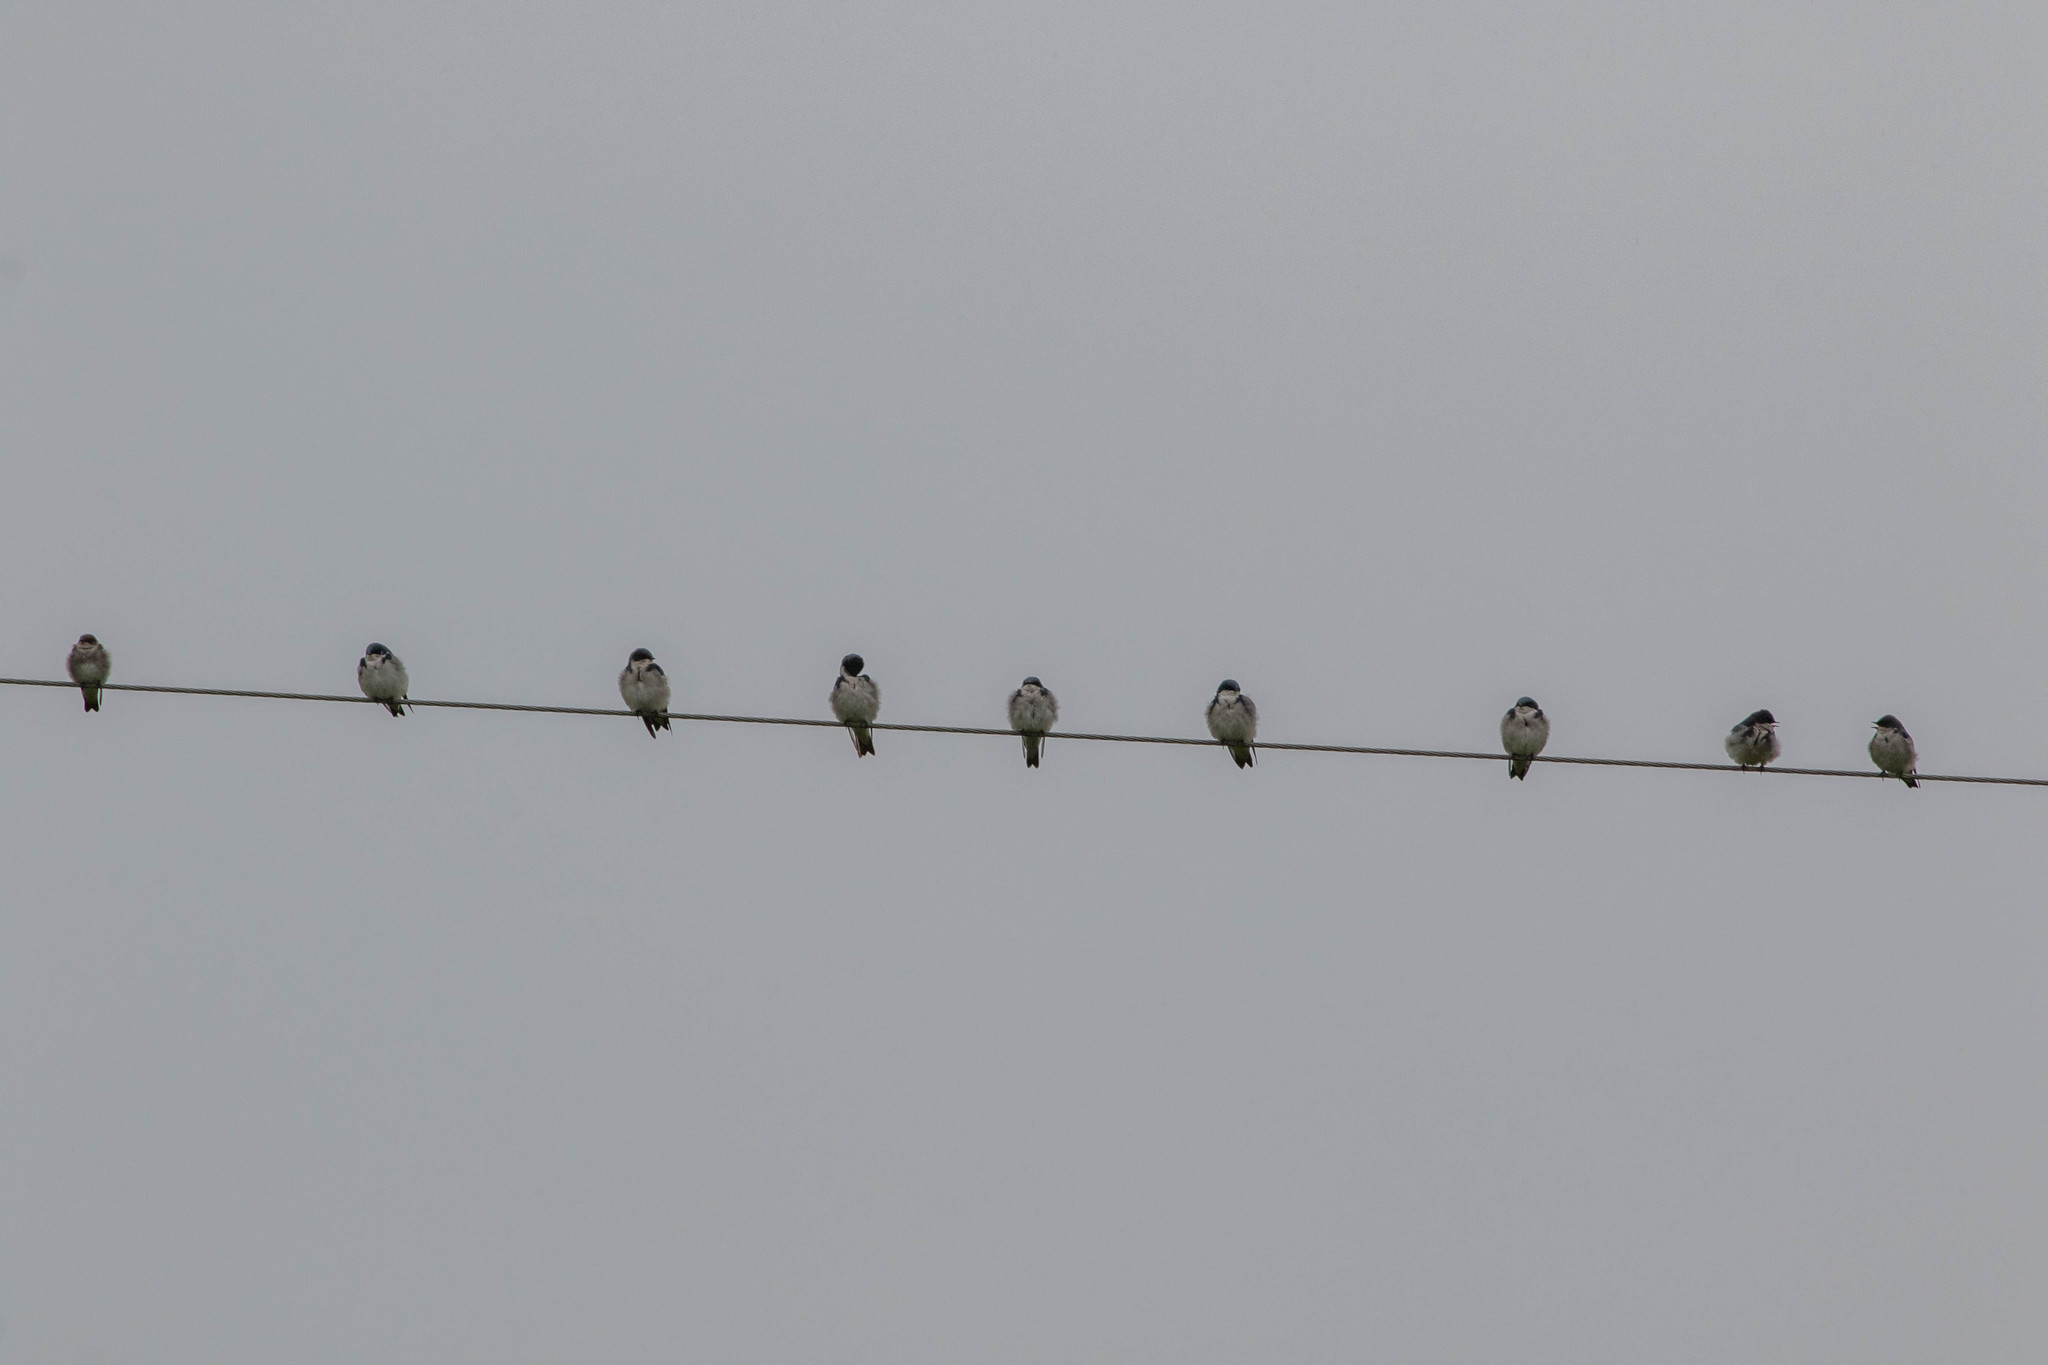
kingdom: Animalia
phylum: Chordata
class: Aves
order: Passeriformes
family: Hirundinidae
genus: Tachycineta
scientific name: Tachycineta bicolor
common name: Tree swallow
